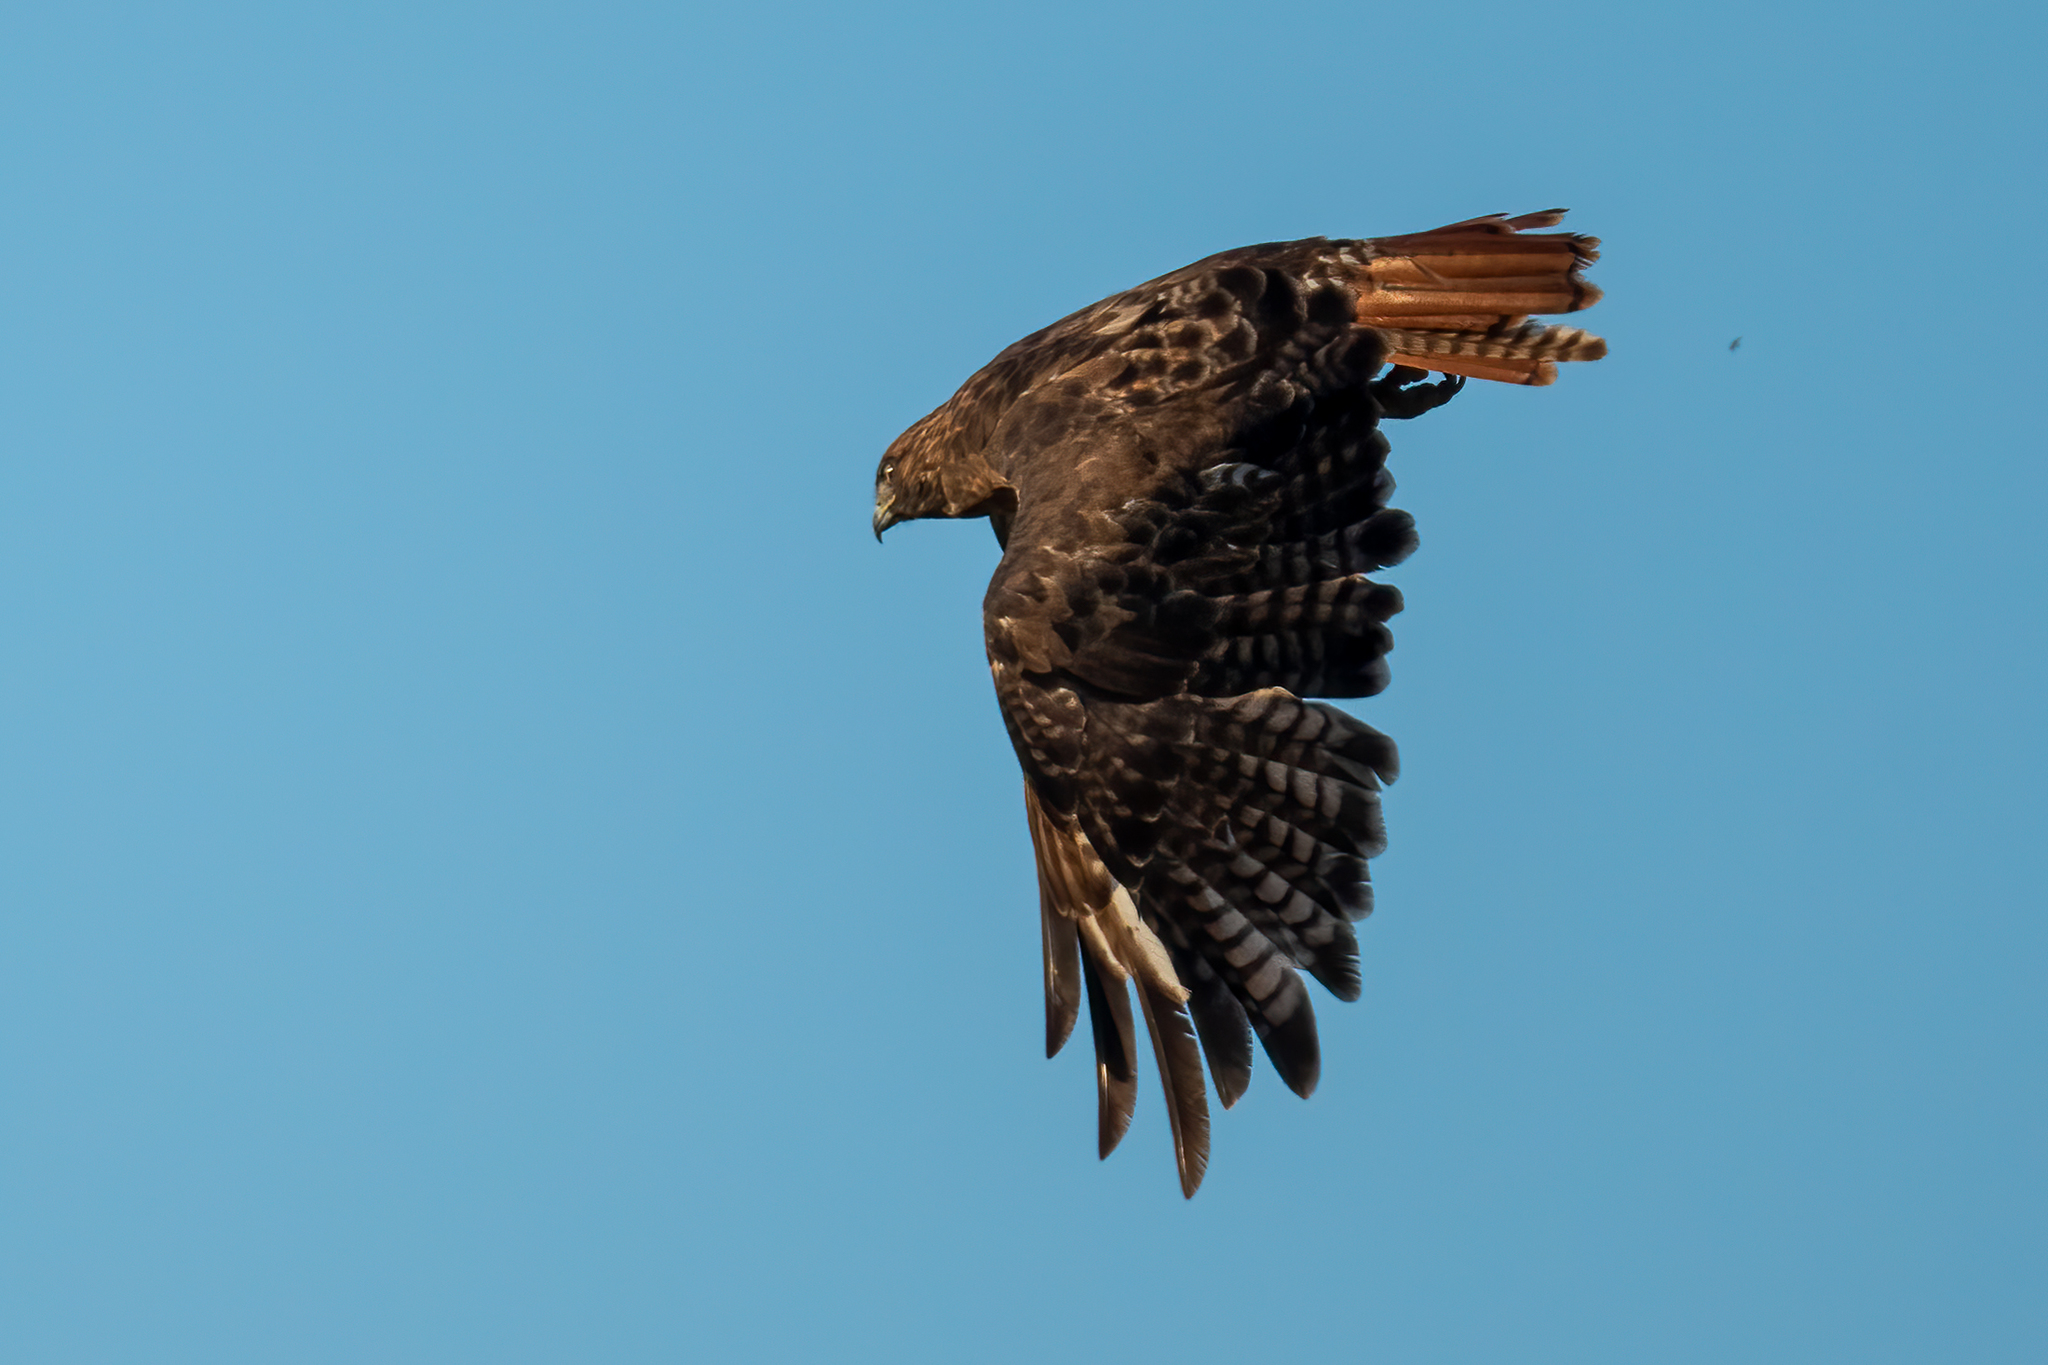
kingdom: Animalia
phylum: Chordata
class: Aves
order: Accipitriformes
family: Accipitridae
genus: Buteo
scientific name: Buteo jamaicensis
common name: Red-tailed hawk
